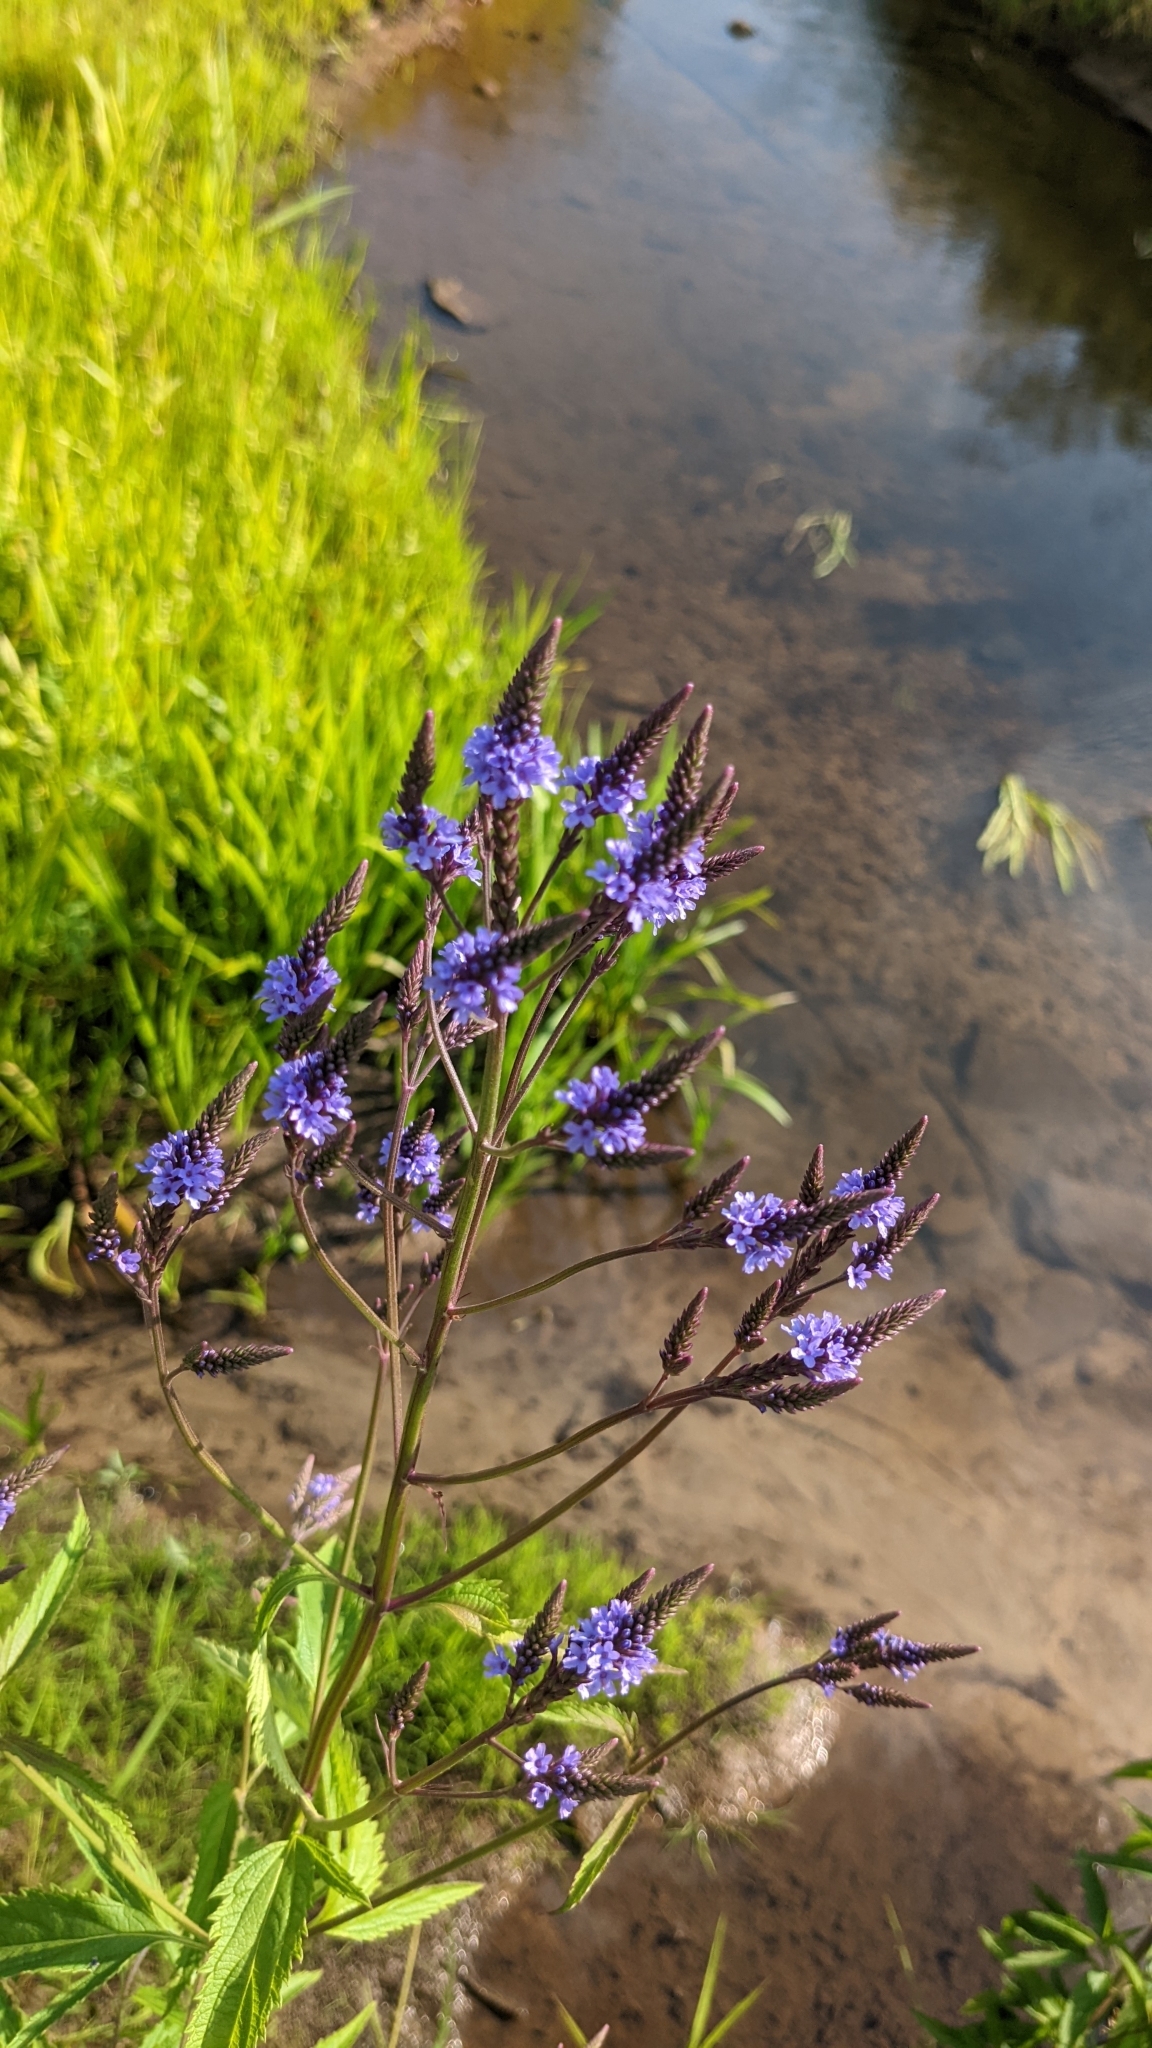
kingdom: Plantae
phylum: Tracheophyta
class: Magnoliopsida
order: Lamiales
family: Verbenaceae
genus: Verbena
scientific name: Verbena hastata
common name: American blue vervain
